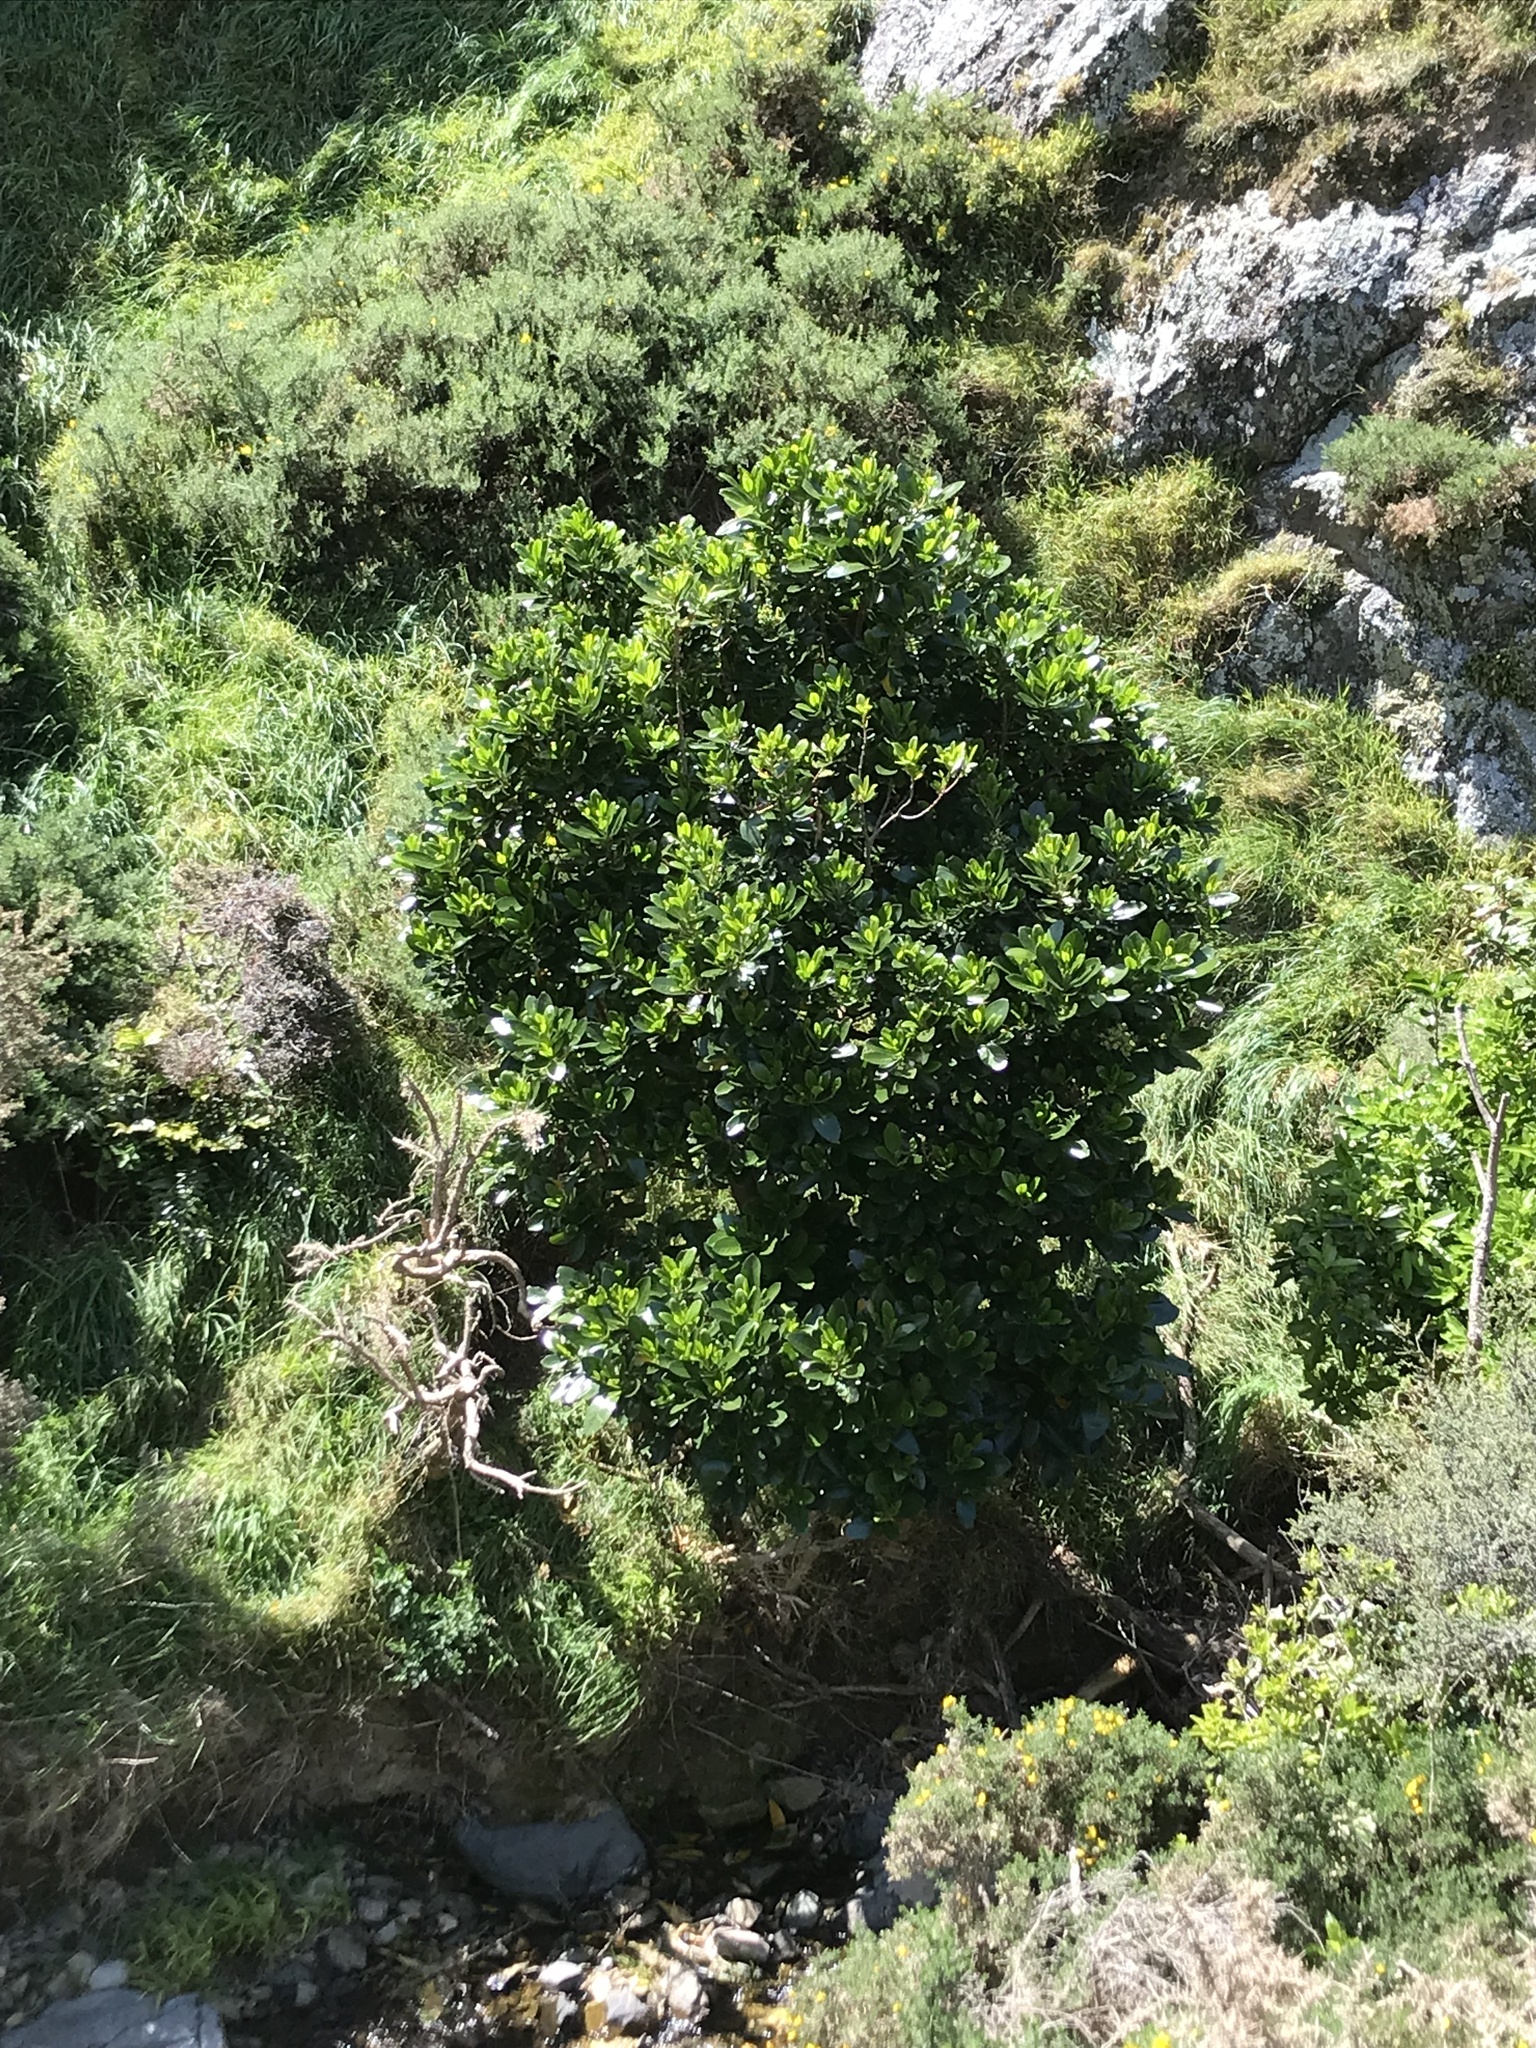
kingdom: Plantae
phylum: Tracheophyta
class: Magnoliopsida
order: Cucurbitales
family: Corynocarpaceae
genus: Corynocarpus
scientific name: Corynocarpus laevigatus
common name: New zealand laurel
